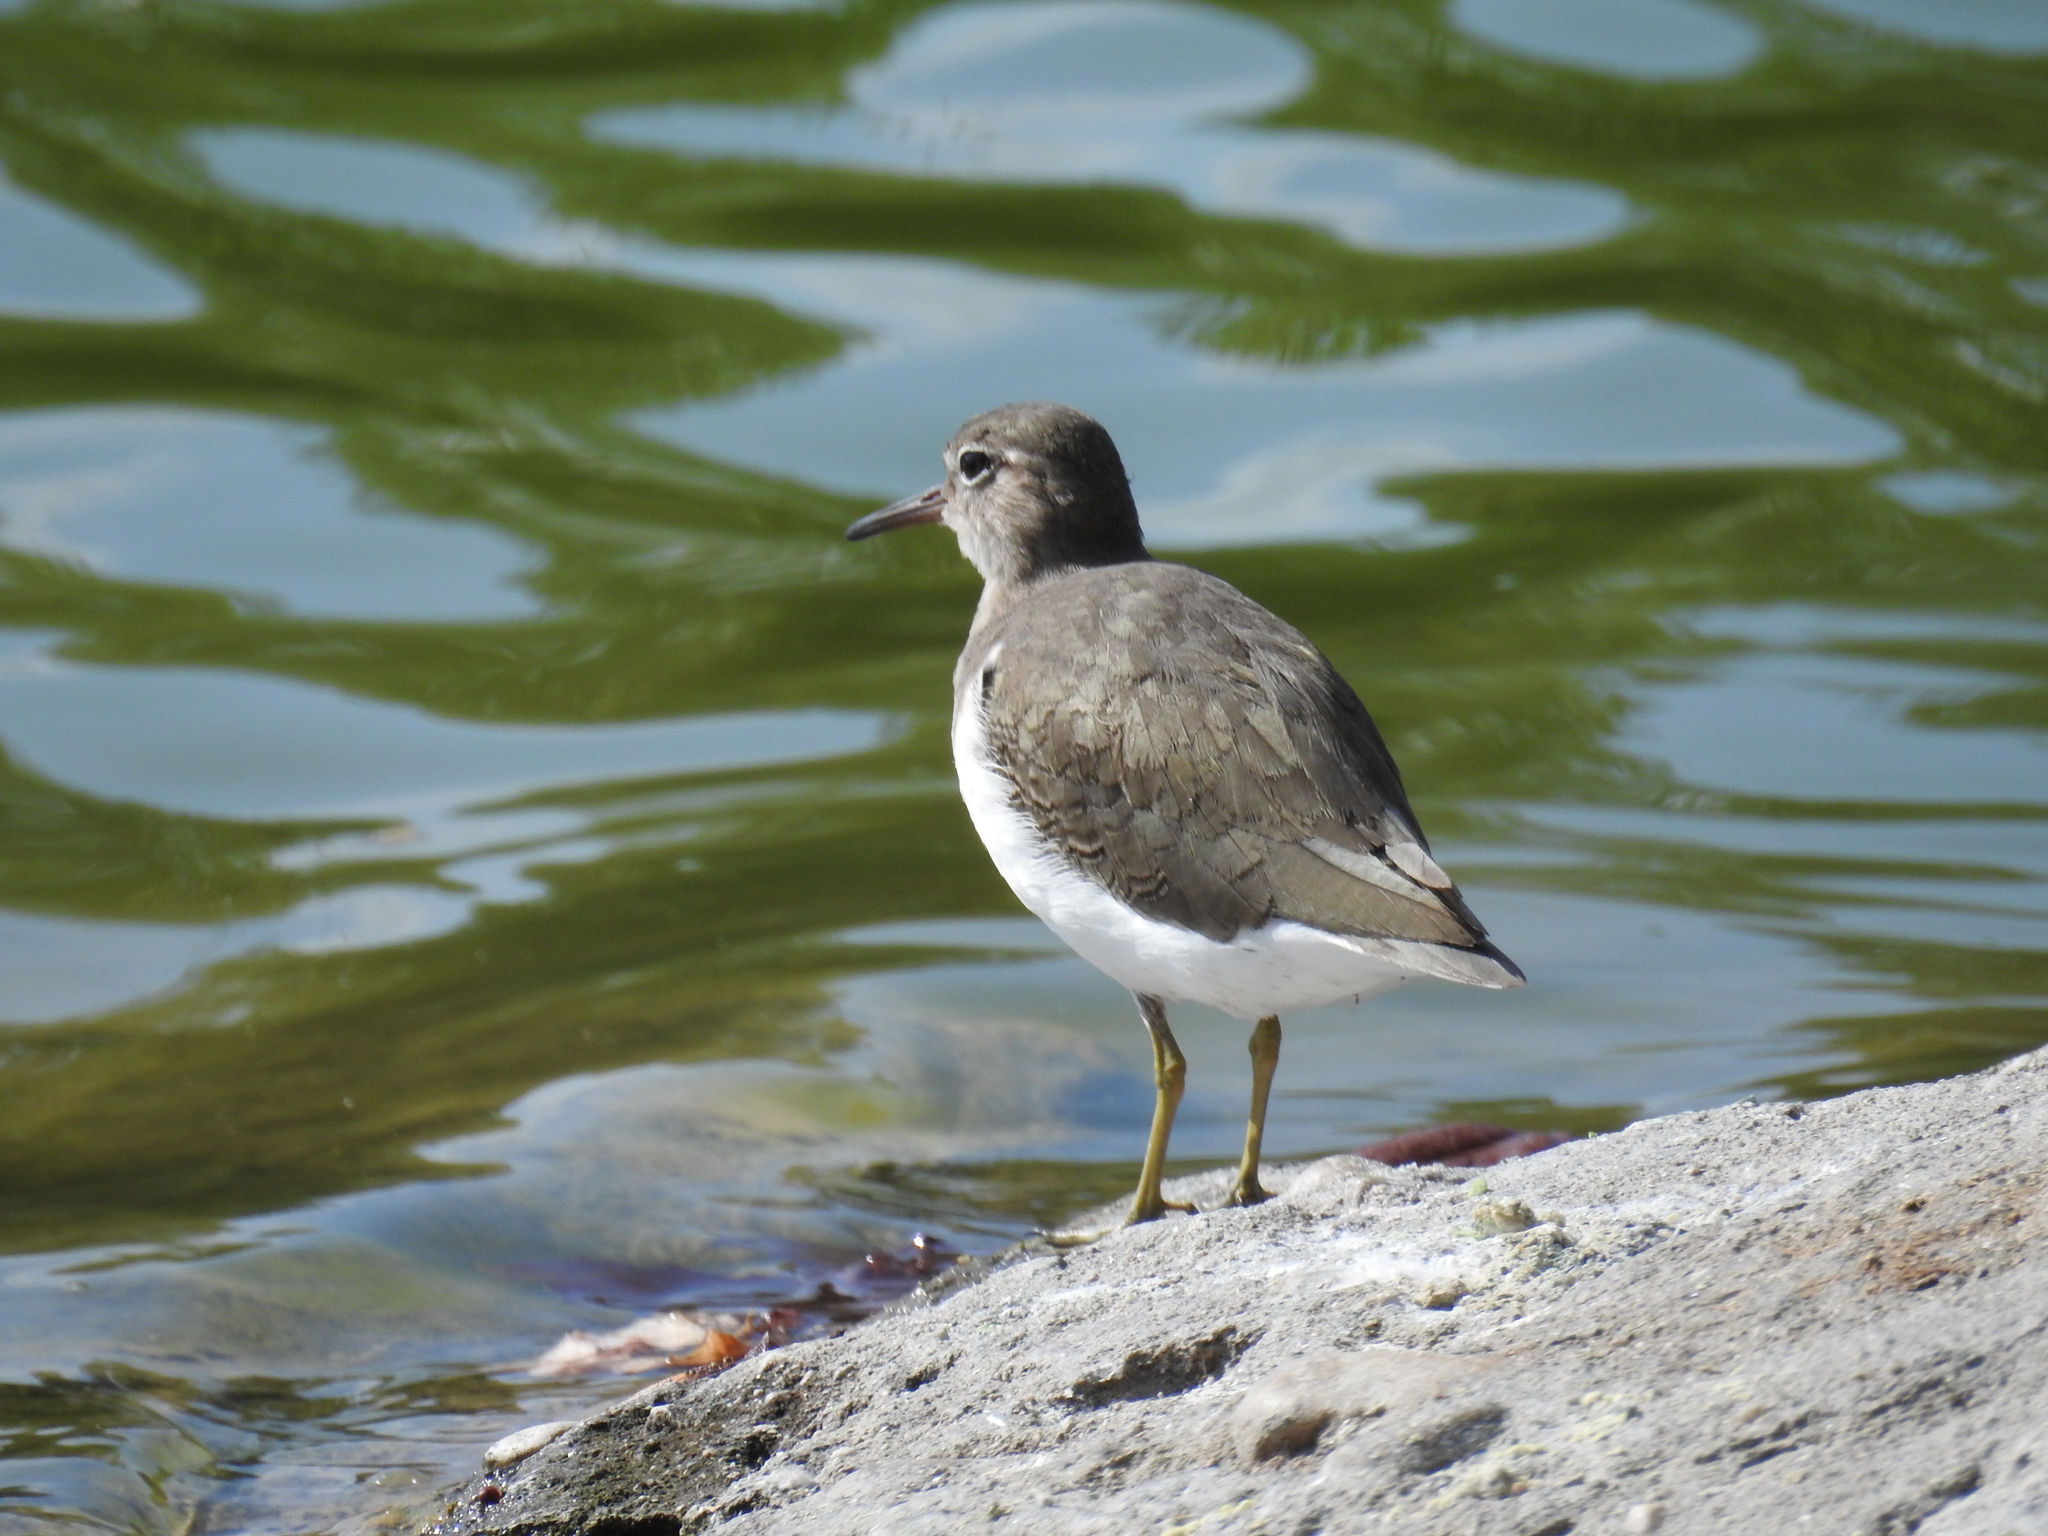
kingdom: Animalia
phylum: Chordata
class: Aves
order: Charadriiformes
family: Scolopacidae
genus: Actitis
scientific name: Actitis macularius
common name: Spotted sandpiper
